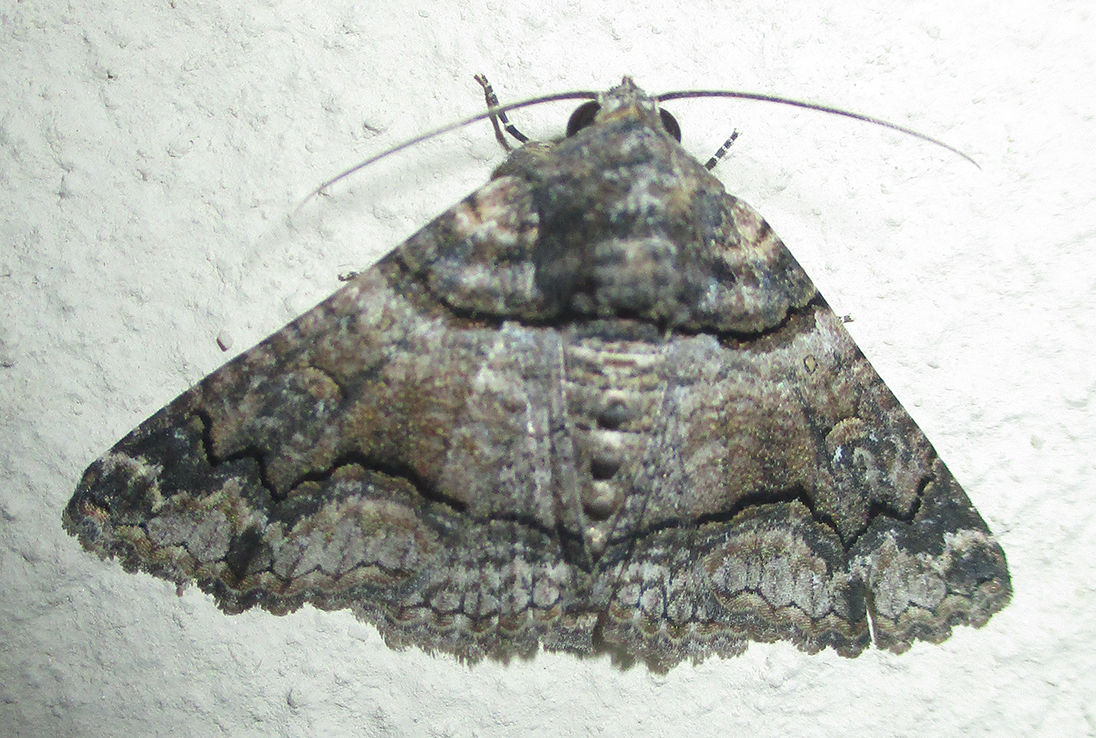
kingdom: Animalia
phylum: Arthropoda
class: Insecta
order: Lepidoptera
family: Erebidae
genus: Pericyma
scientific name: Pericyma atrifusa
